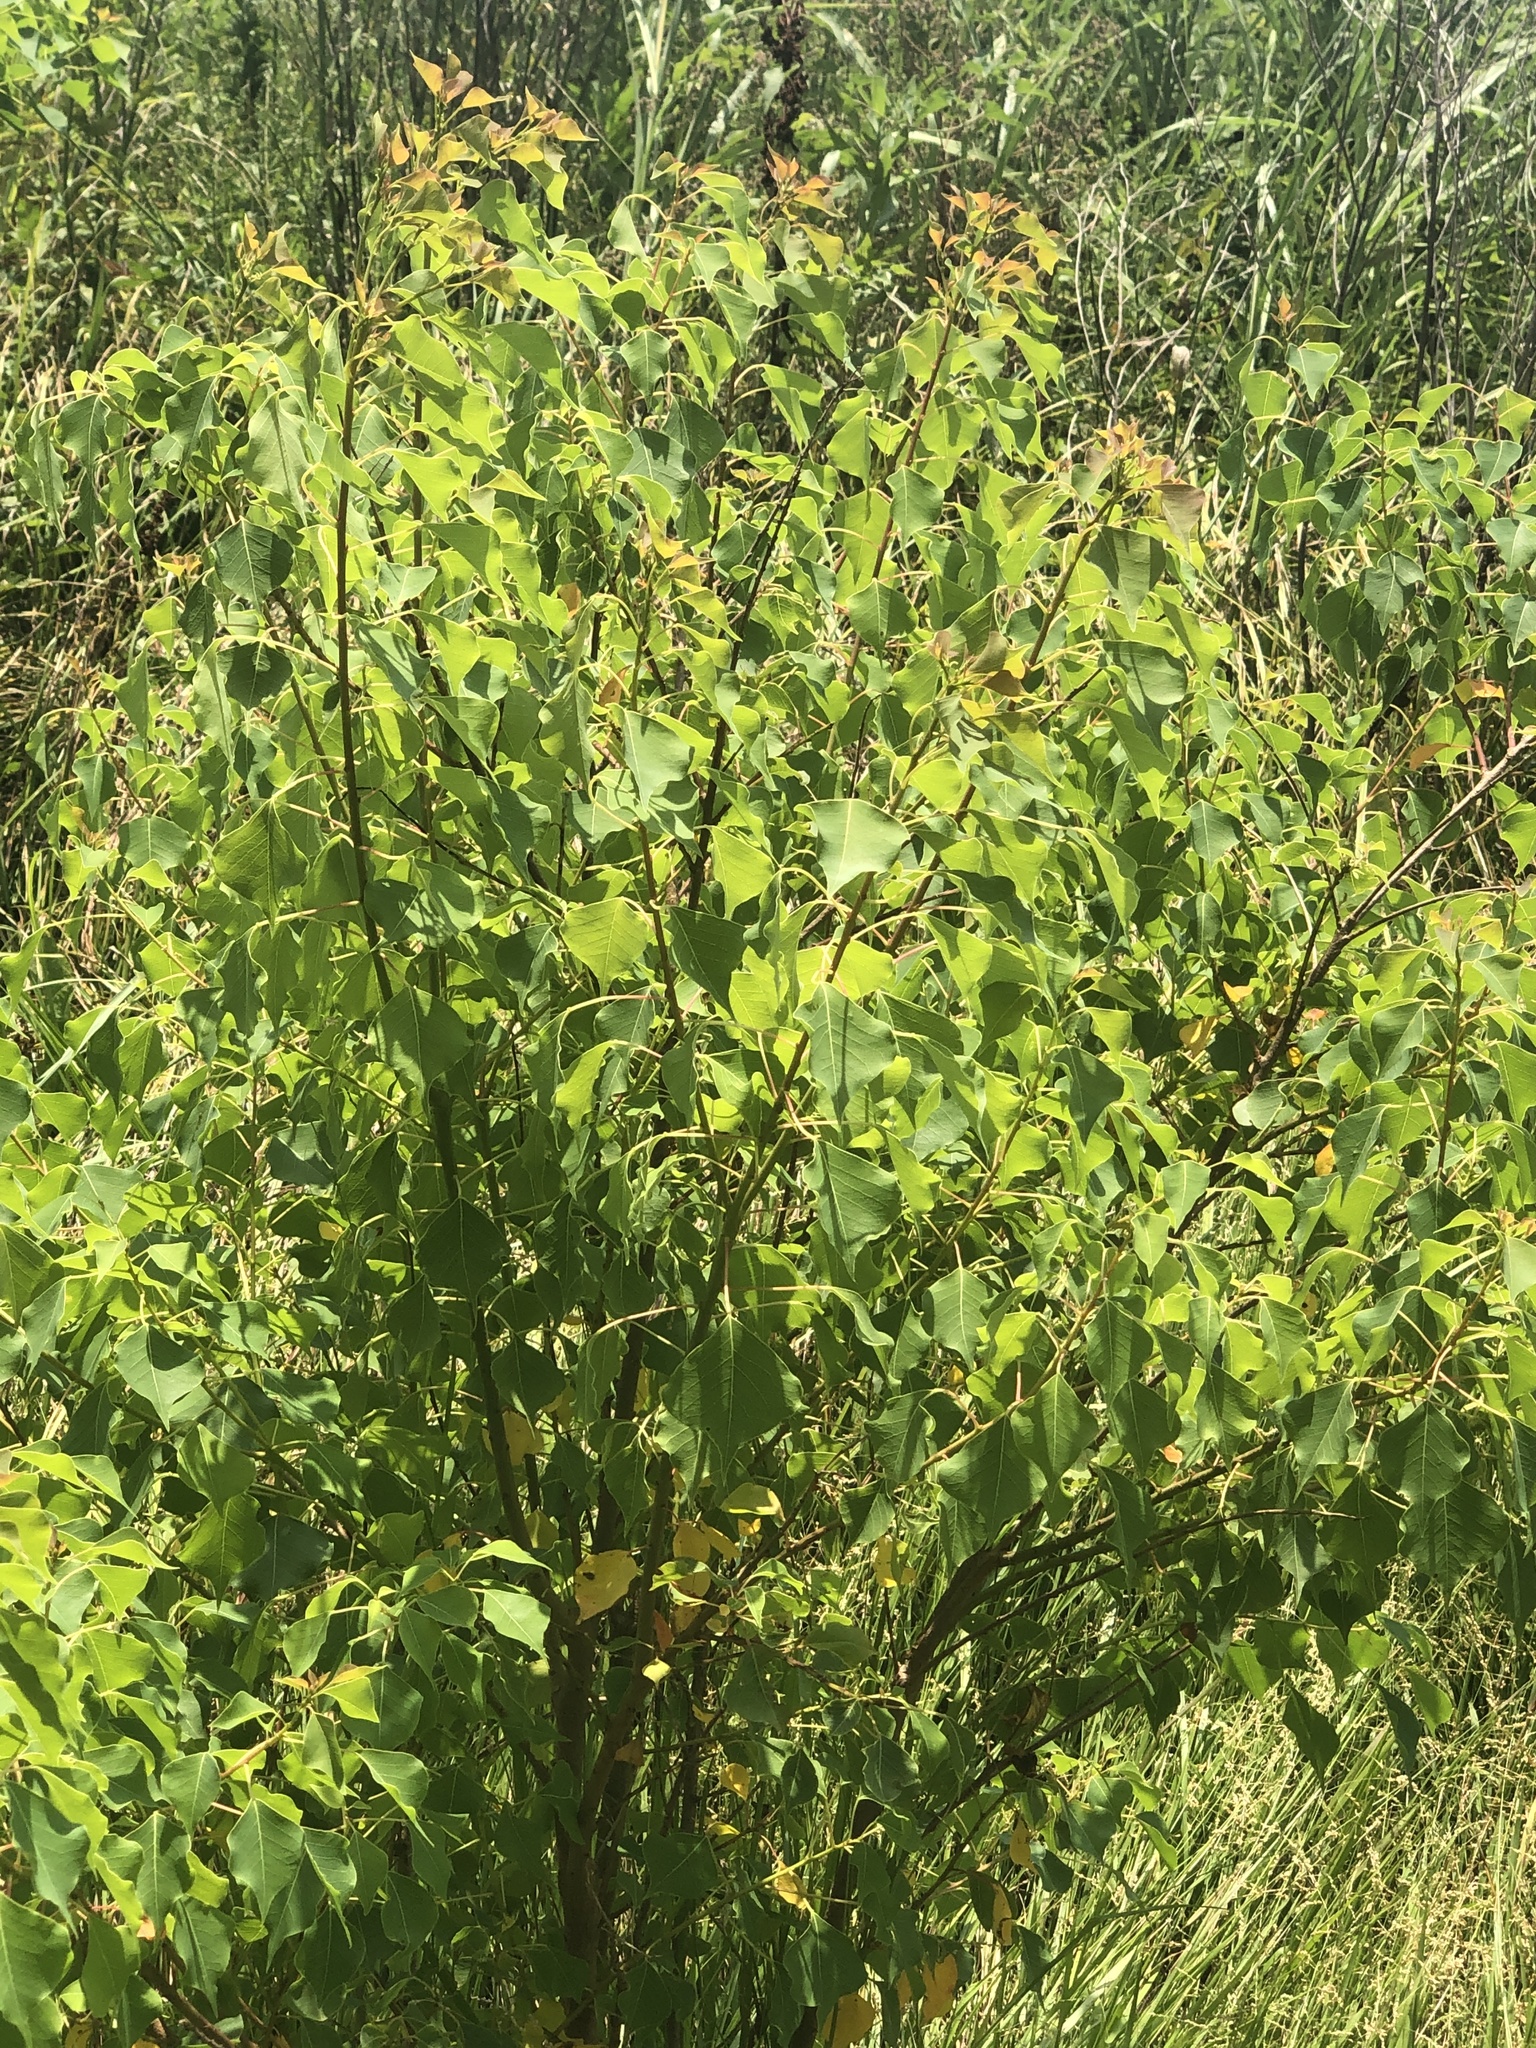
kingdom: Plantae
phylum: Tracheophyta
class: Magnoliopsida
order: Malpighiales
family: Euphorbiaceae
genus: Triadica
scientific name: Triadica sebifera
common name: Chinese tallow
